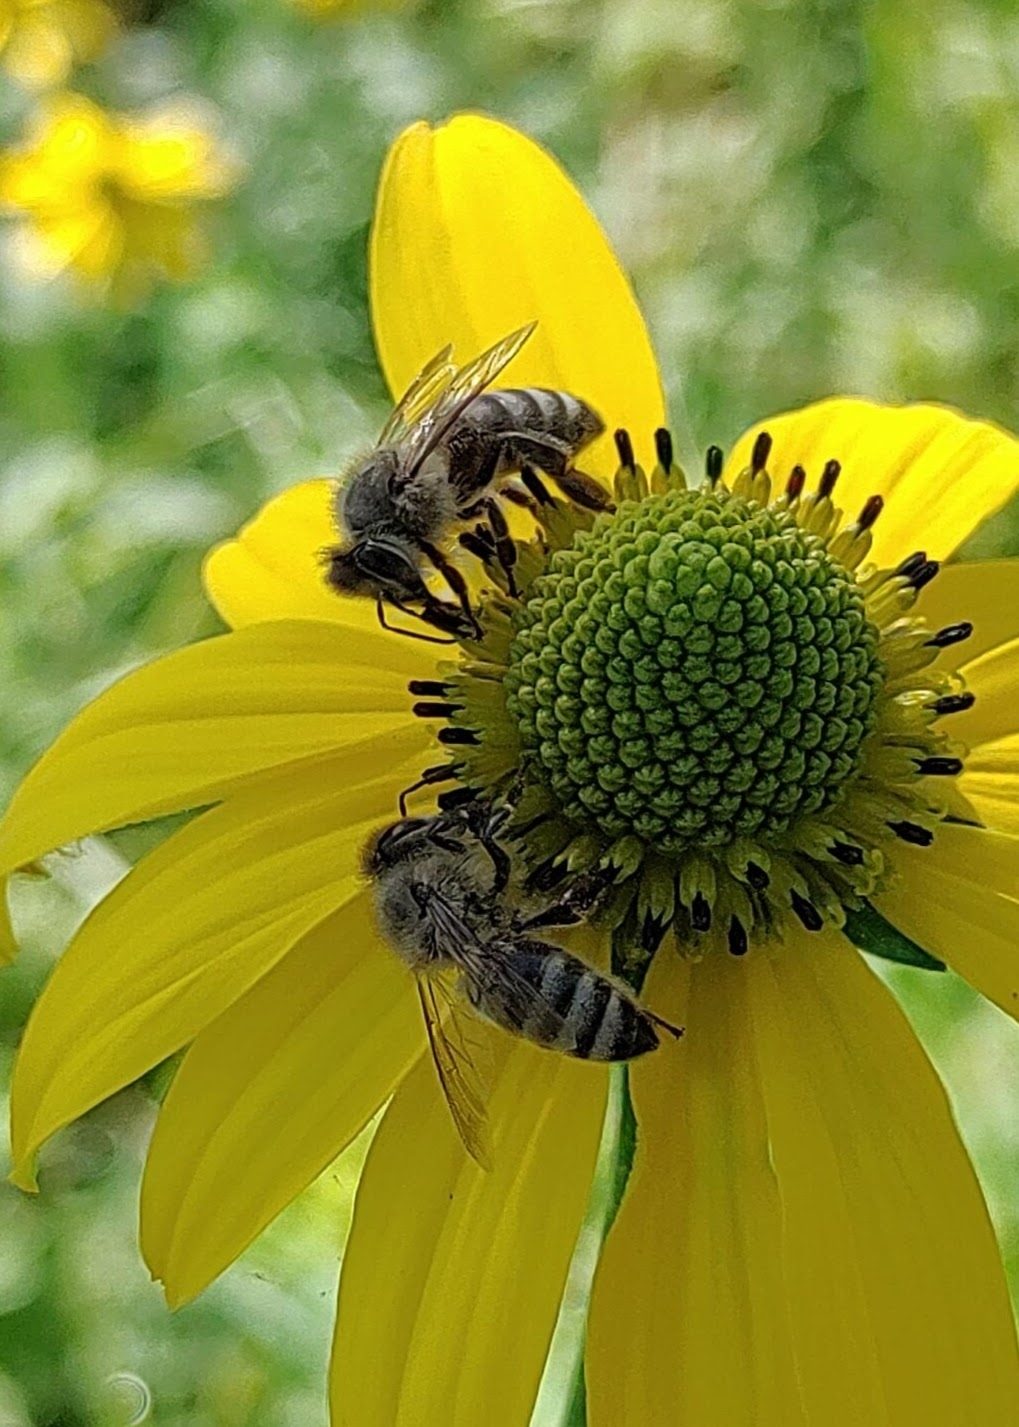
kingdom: Animalia
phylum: Arthropoda
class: Insecta
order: Hymenoptera
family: Apidae
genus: Apis
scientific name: Apis mellifera
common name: Honey bee
